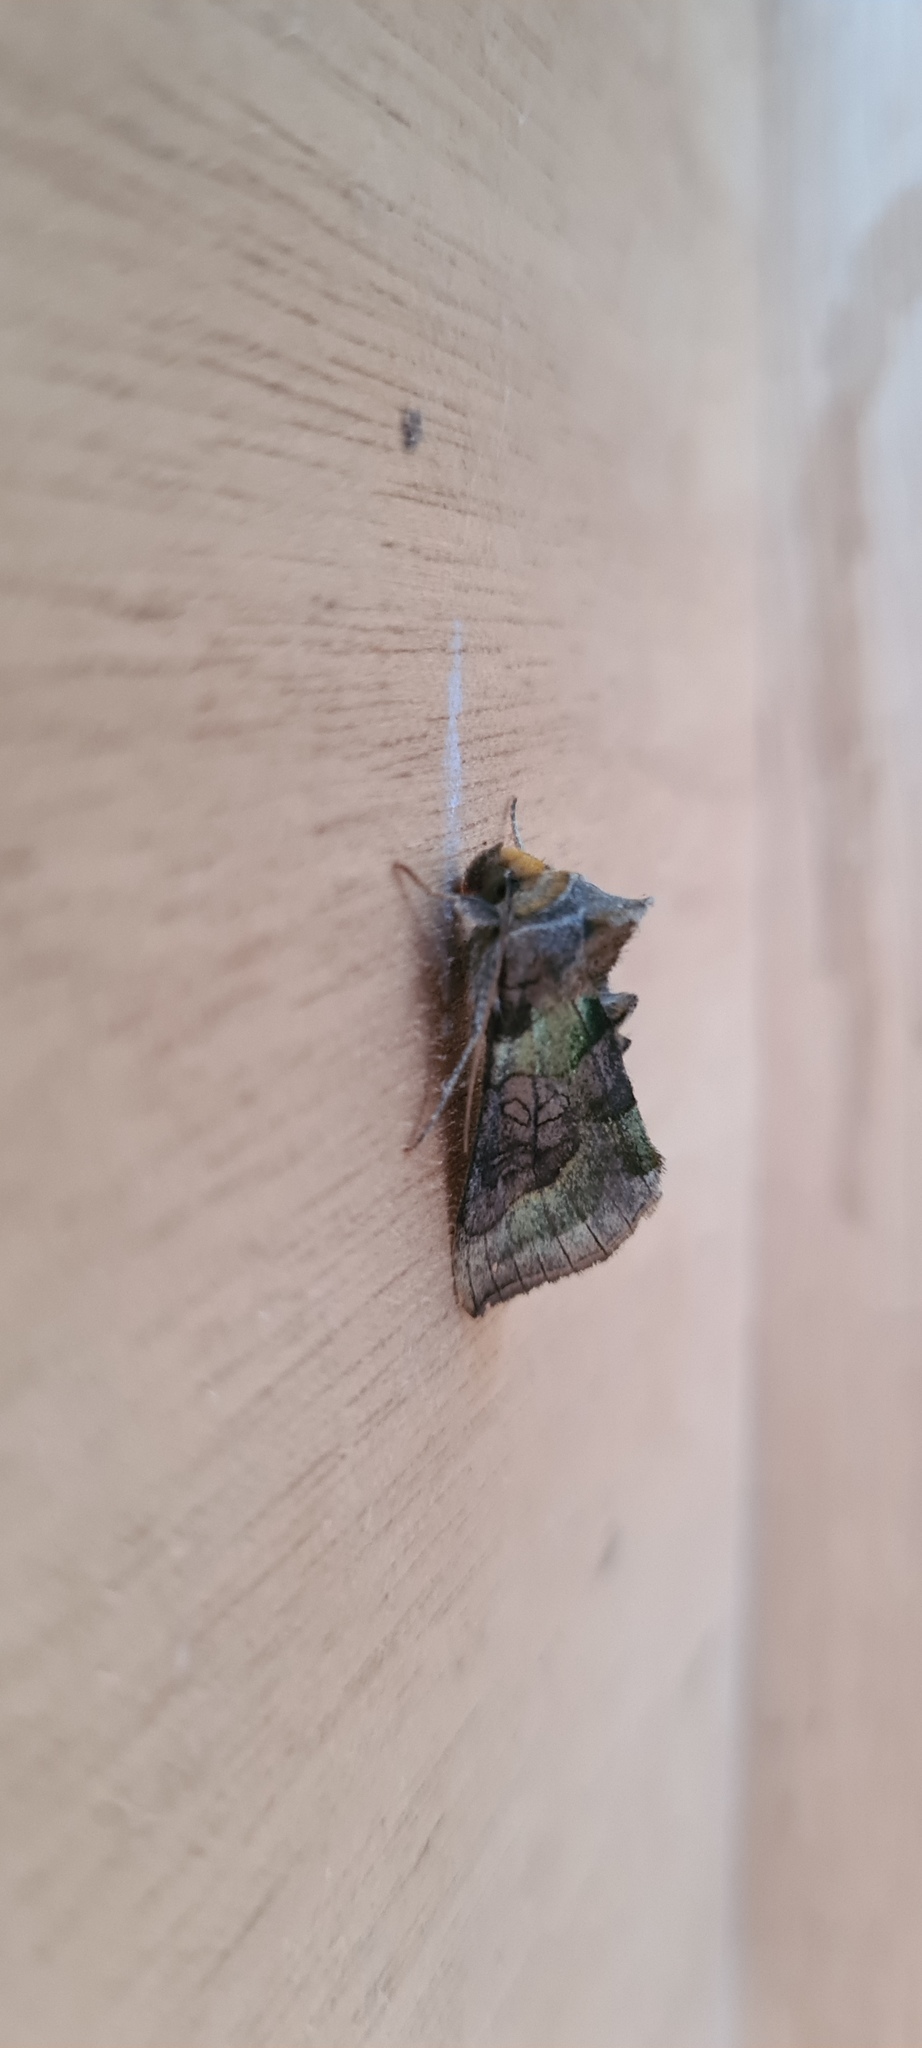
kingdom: Animalia
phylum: Arthropoda
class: Insecta
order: Lepidoptera
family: Noctuidae
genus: Diachrysia
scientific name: Diachrysia chrysitis
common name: Burnished brass
